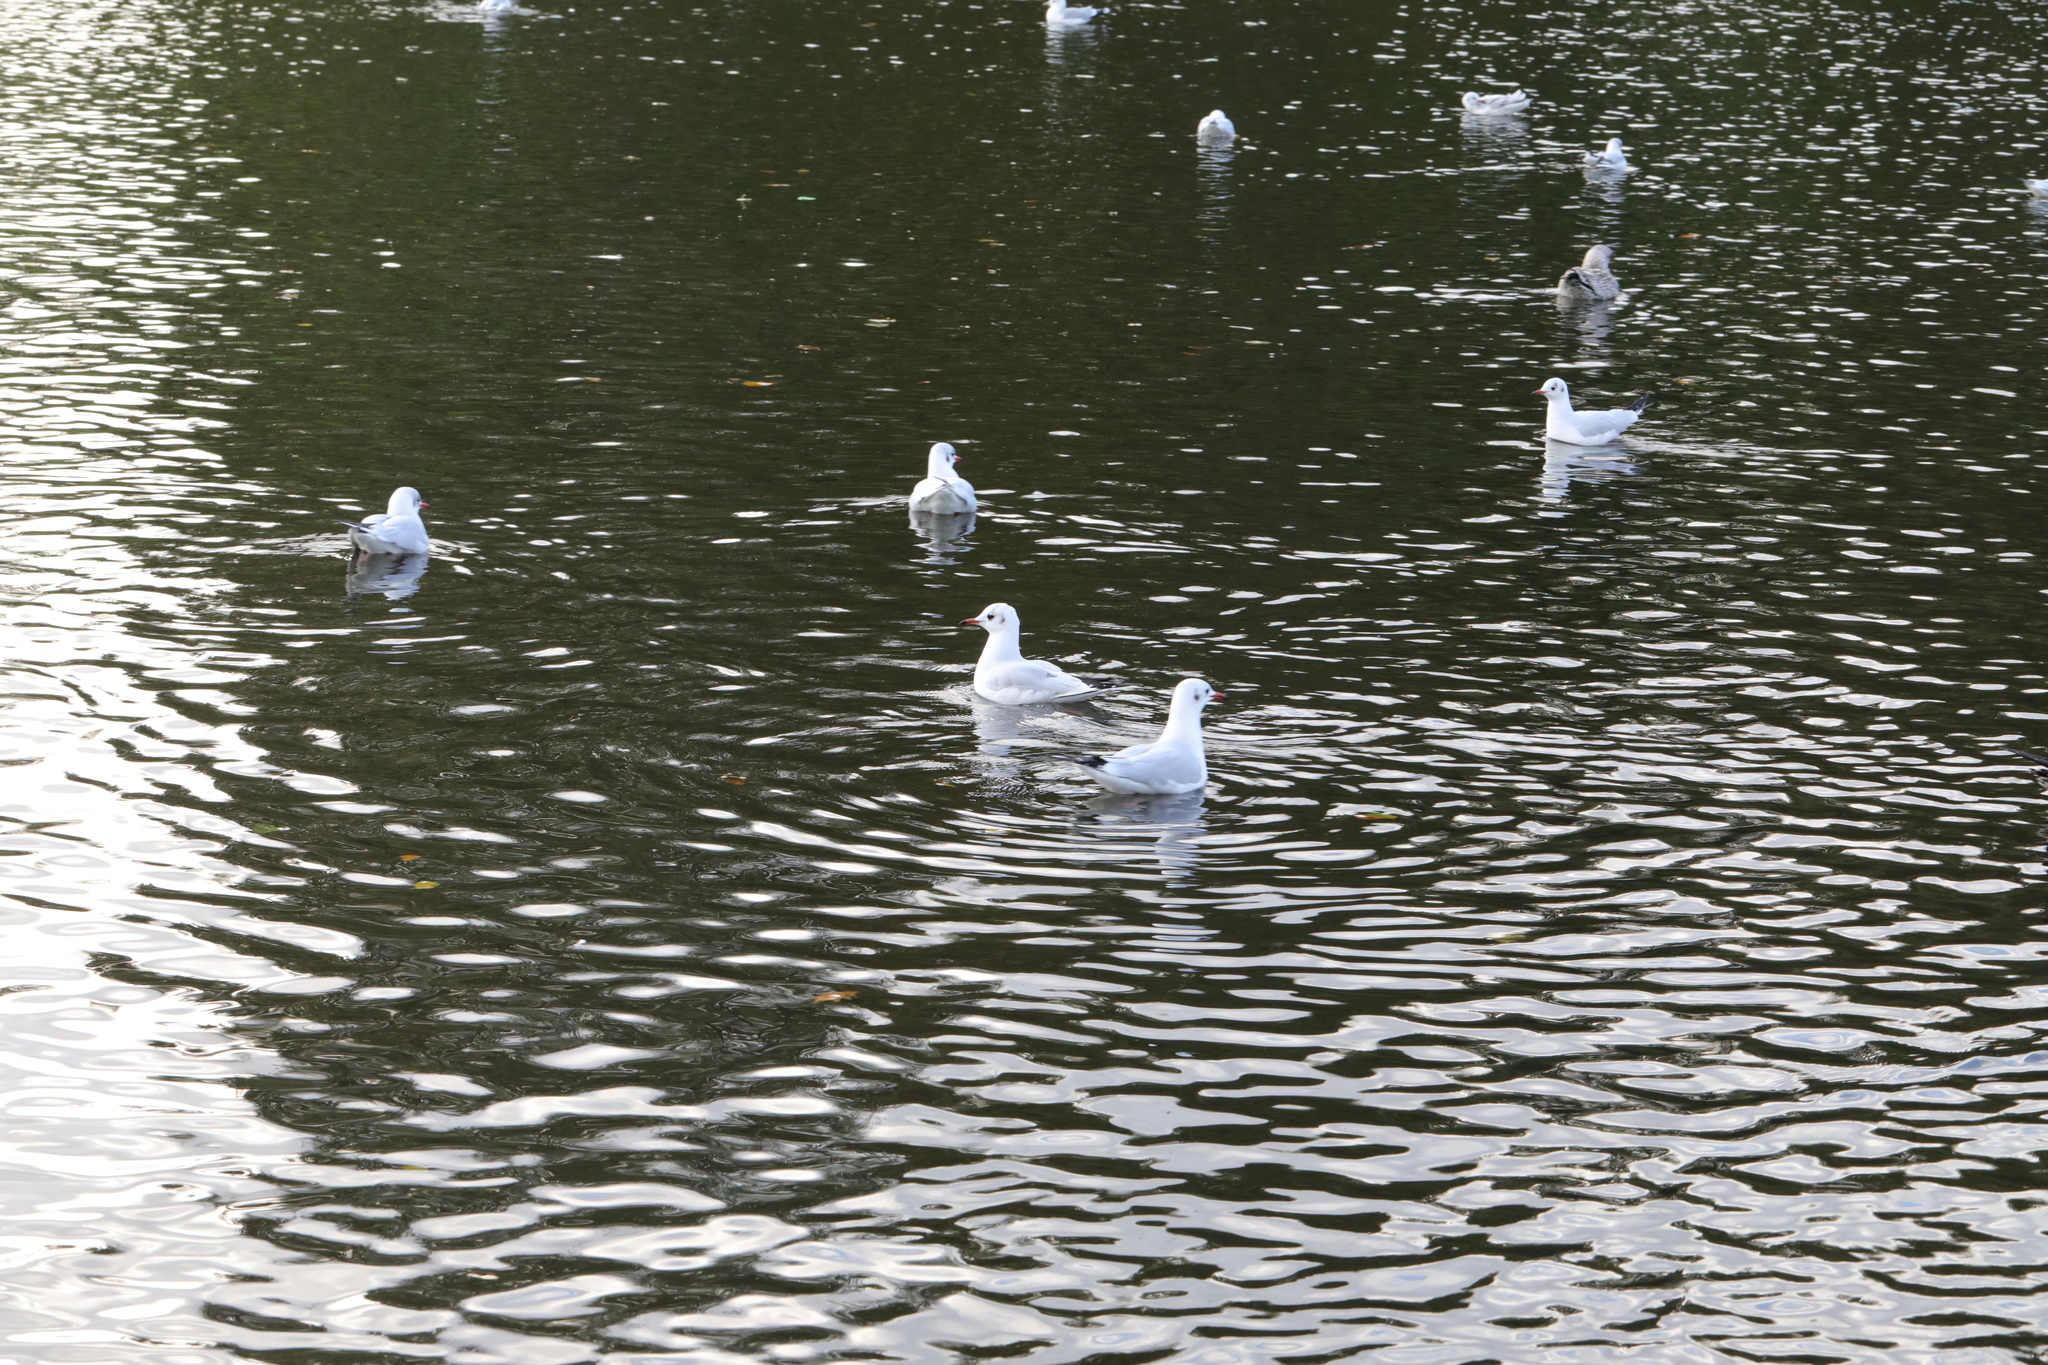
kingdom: Animalia
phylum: Chordata
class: Aves
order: Charadriiformes
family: Laridae
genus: Chroicocephalus
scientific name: Chroicocephalus ridibundus
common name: Black-headed gull
